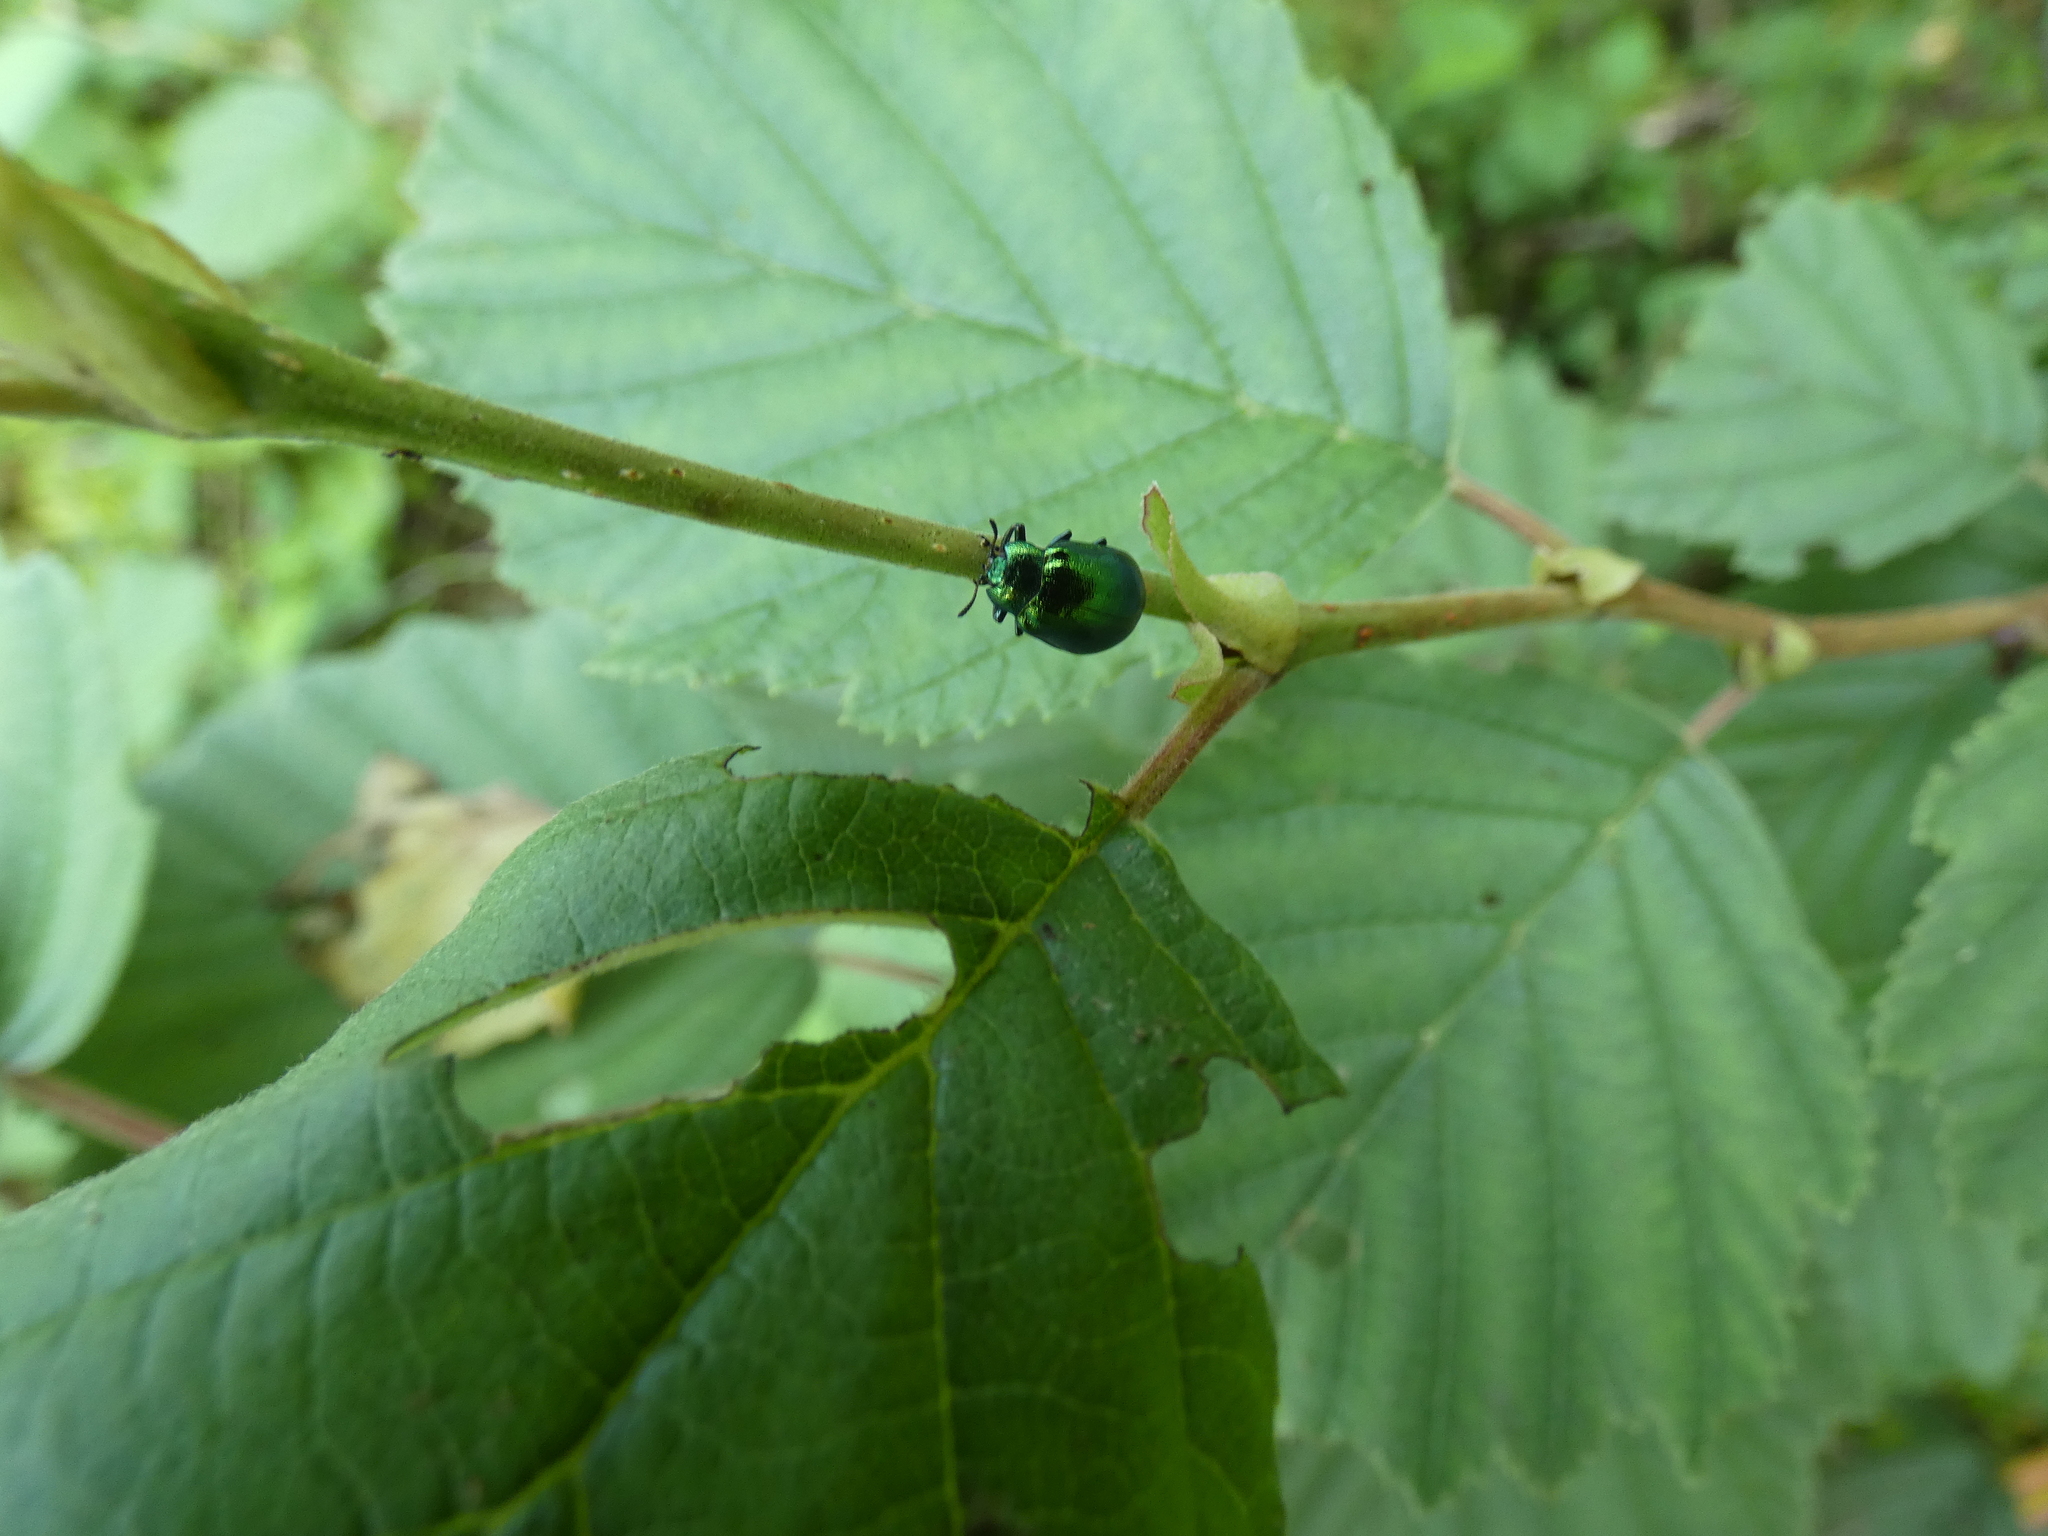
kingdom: Animalia
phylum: Arthropoda
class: Insecta
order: Coleoptera
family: Chrysomelidae
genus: Plagiosterna
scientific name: Plagiosterna aenea
